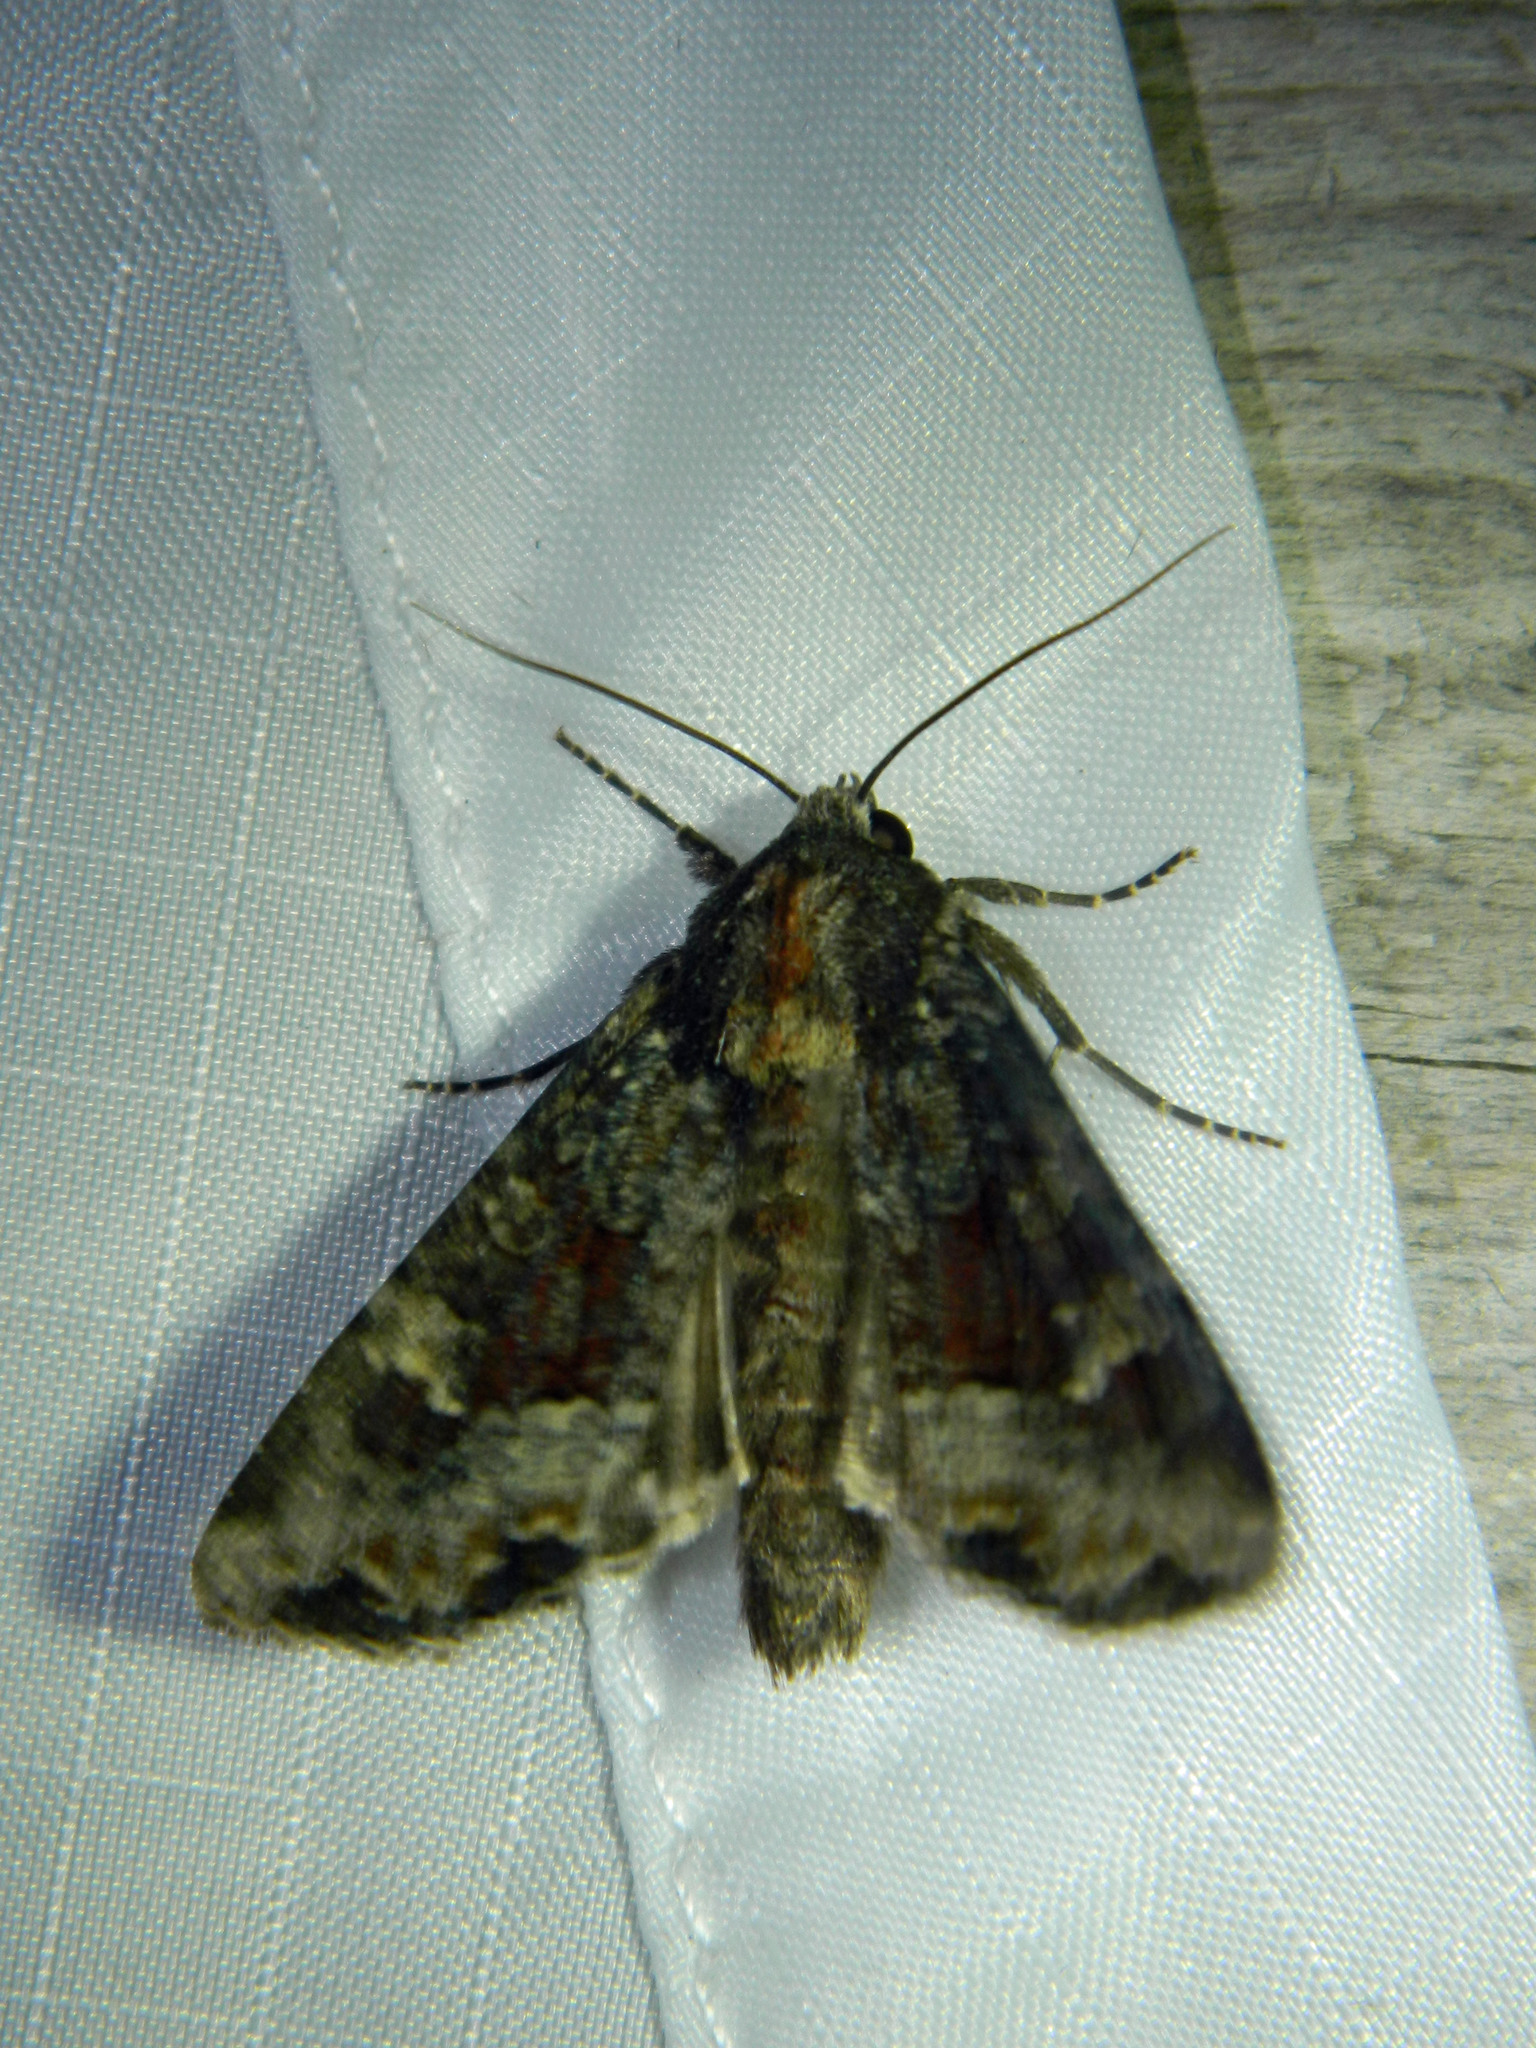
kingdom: Animalia
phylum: Arthropoda
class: Insecta
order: Lepidoptera
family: Noctuidae
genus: Apamea
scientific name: Apamea amputatrix
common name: Yellow-headed cutworm moth
